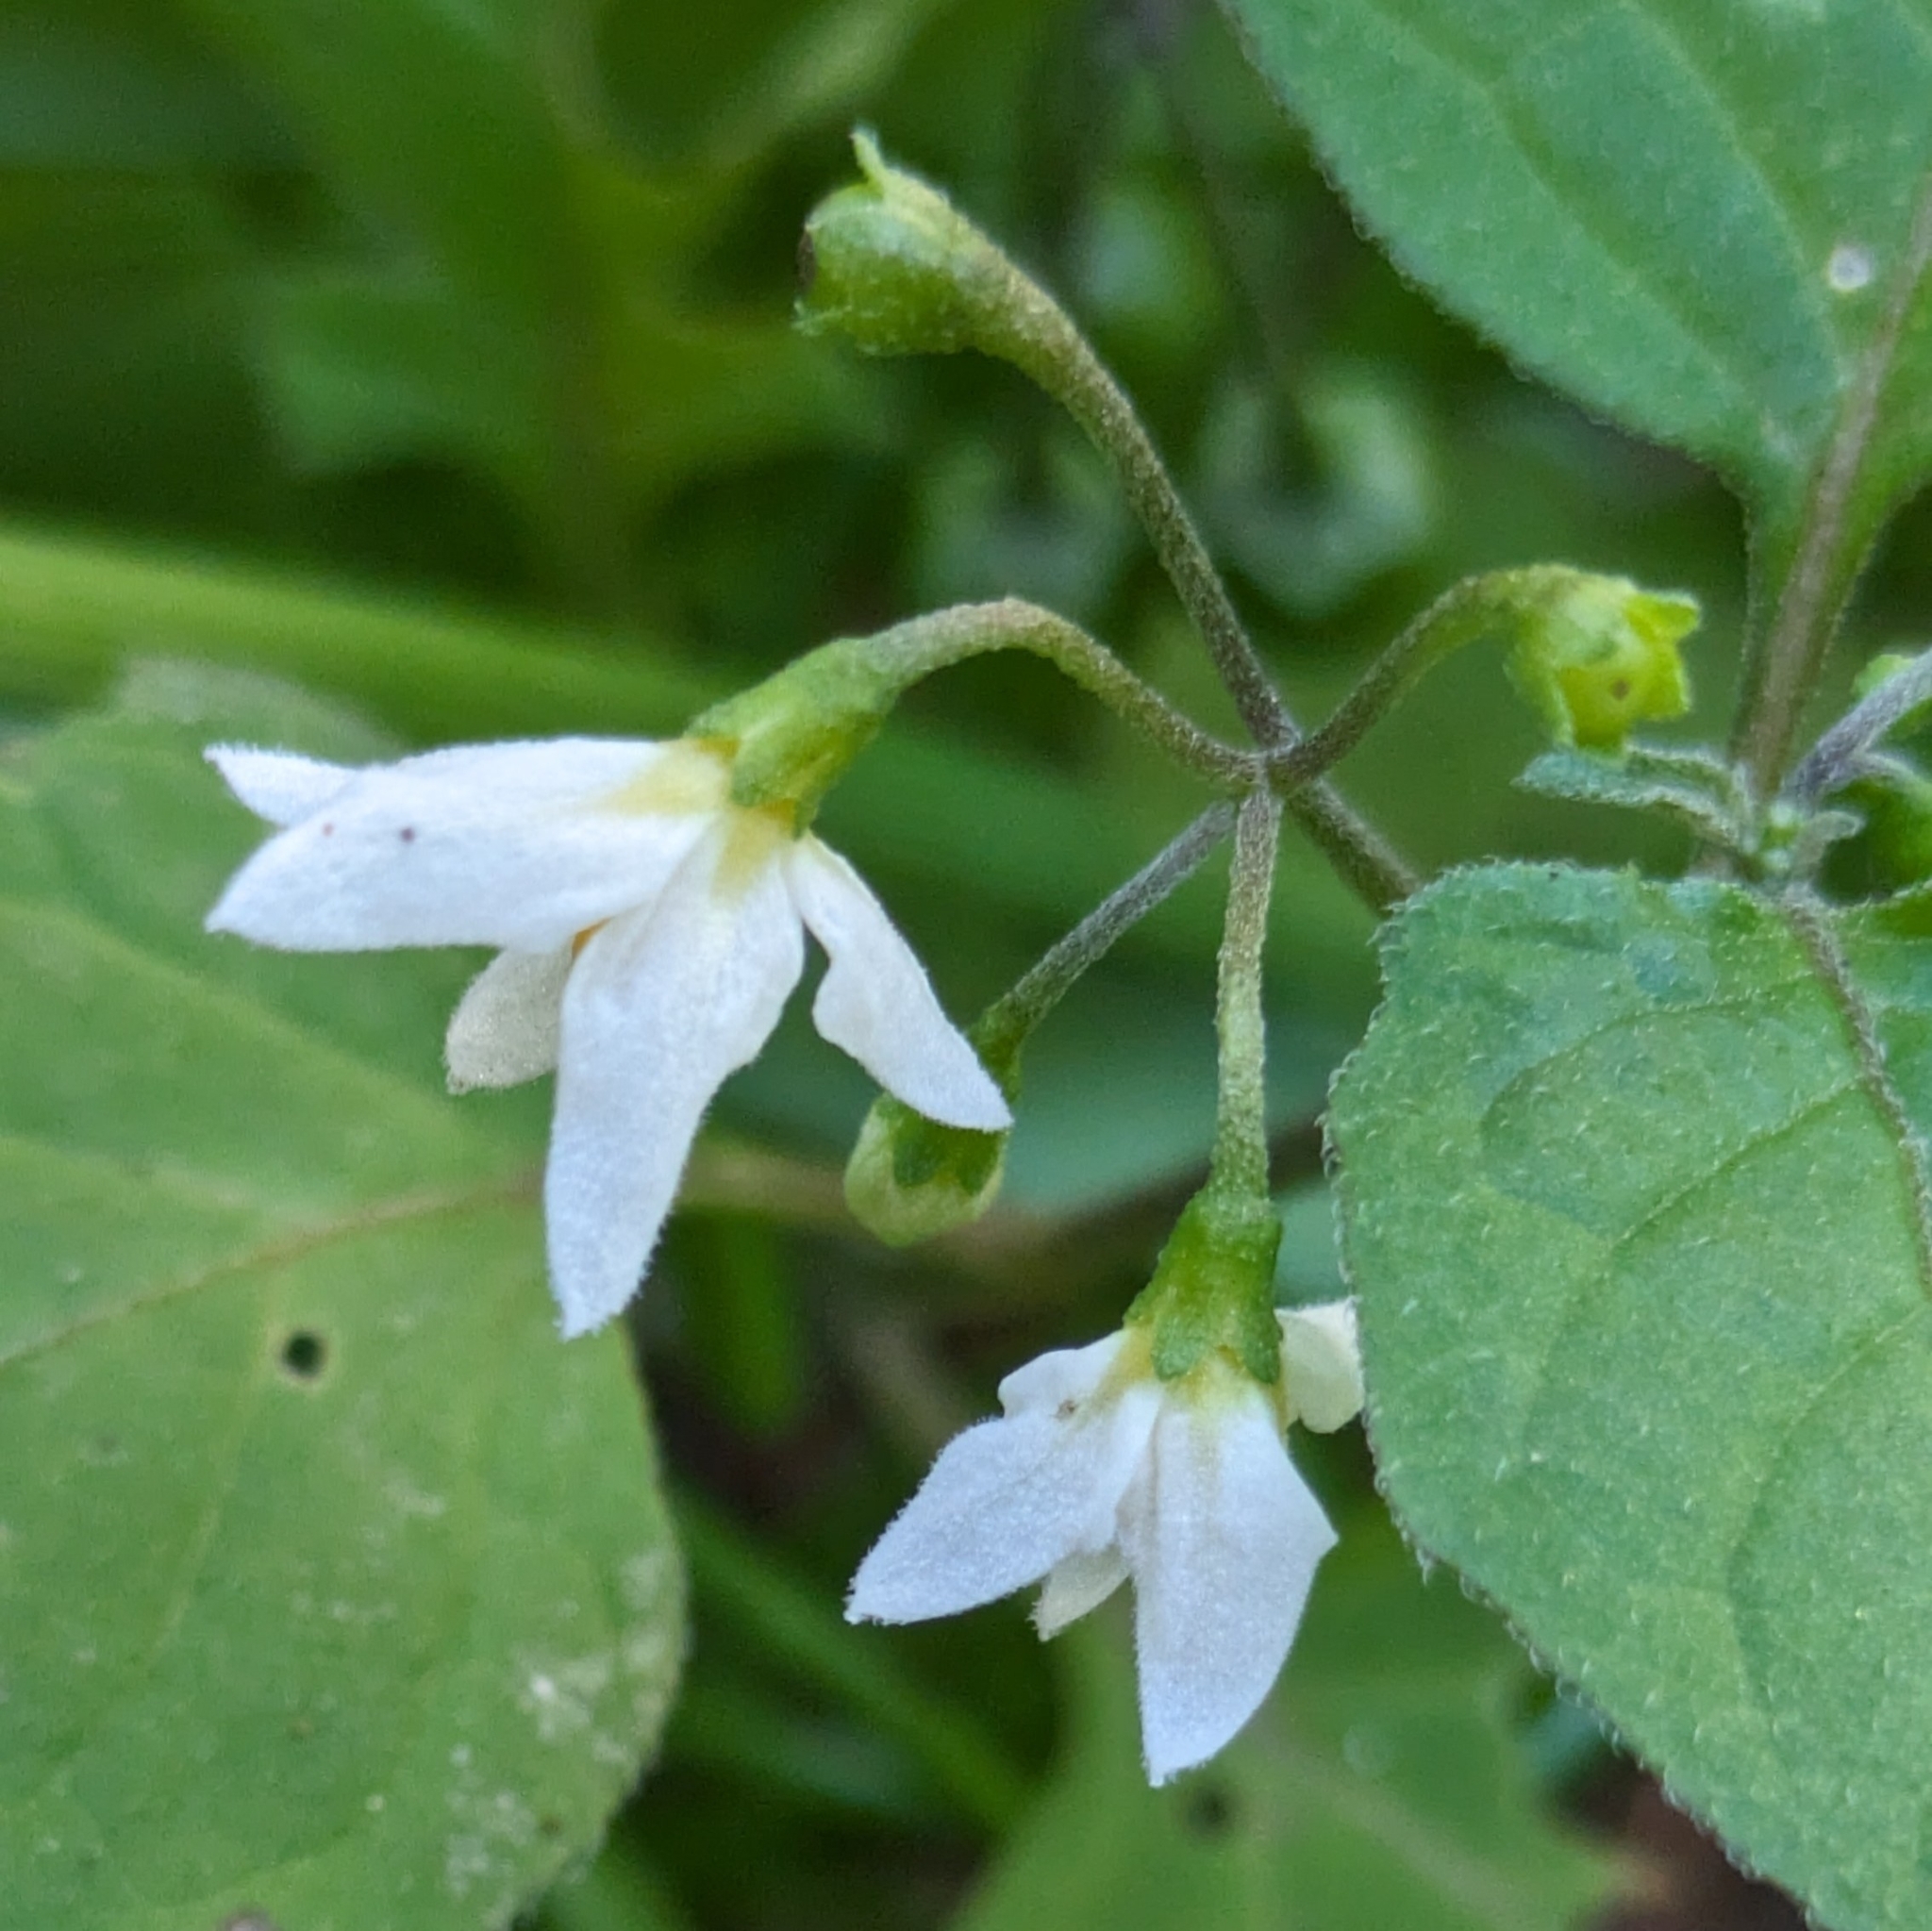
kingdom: Plantae
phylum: Tracheophyta
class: Magnoliopsida
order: Solanales
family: Solanaceae
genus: Solanum
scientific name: Solanum nigrum
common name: Black nightshade
